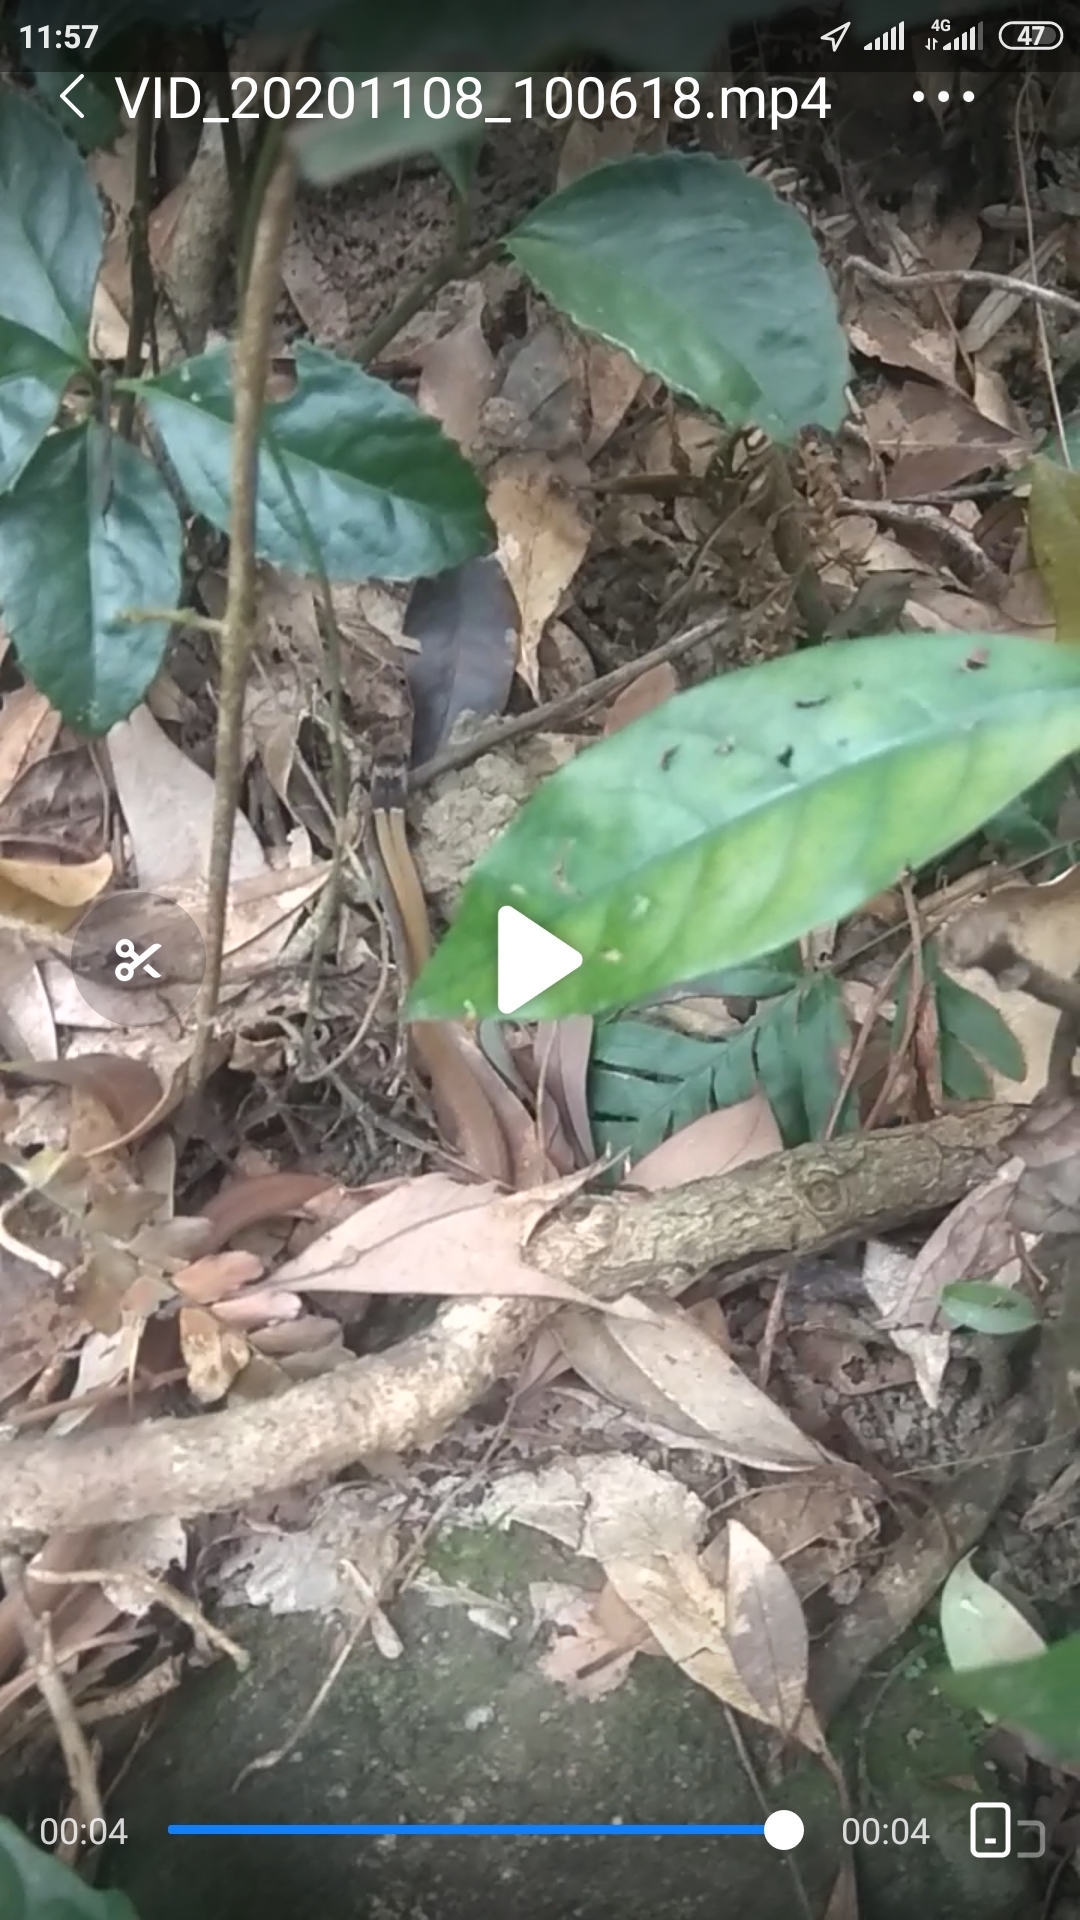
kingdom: Animalia
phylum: Chordata
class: Squamata
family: Colubridae
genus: Sibynophis
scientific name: Sibynophis chinensis
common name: Chinese many-tooth snake
